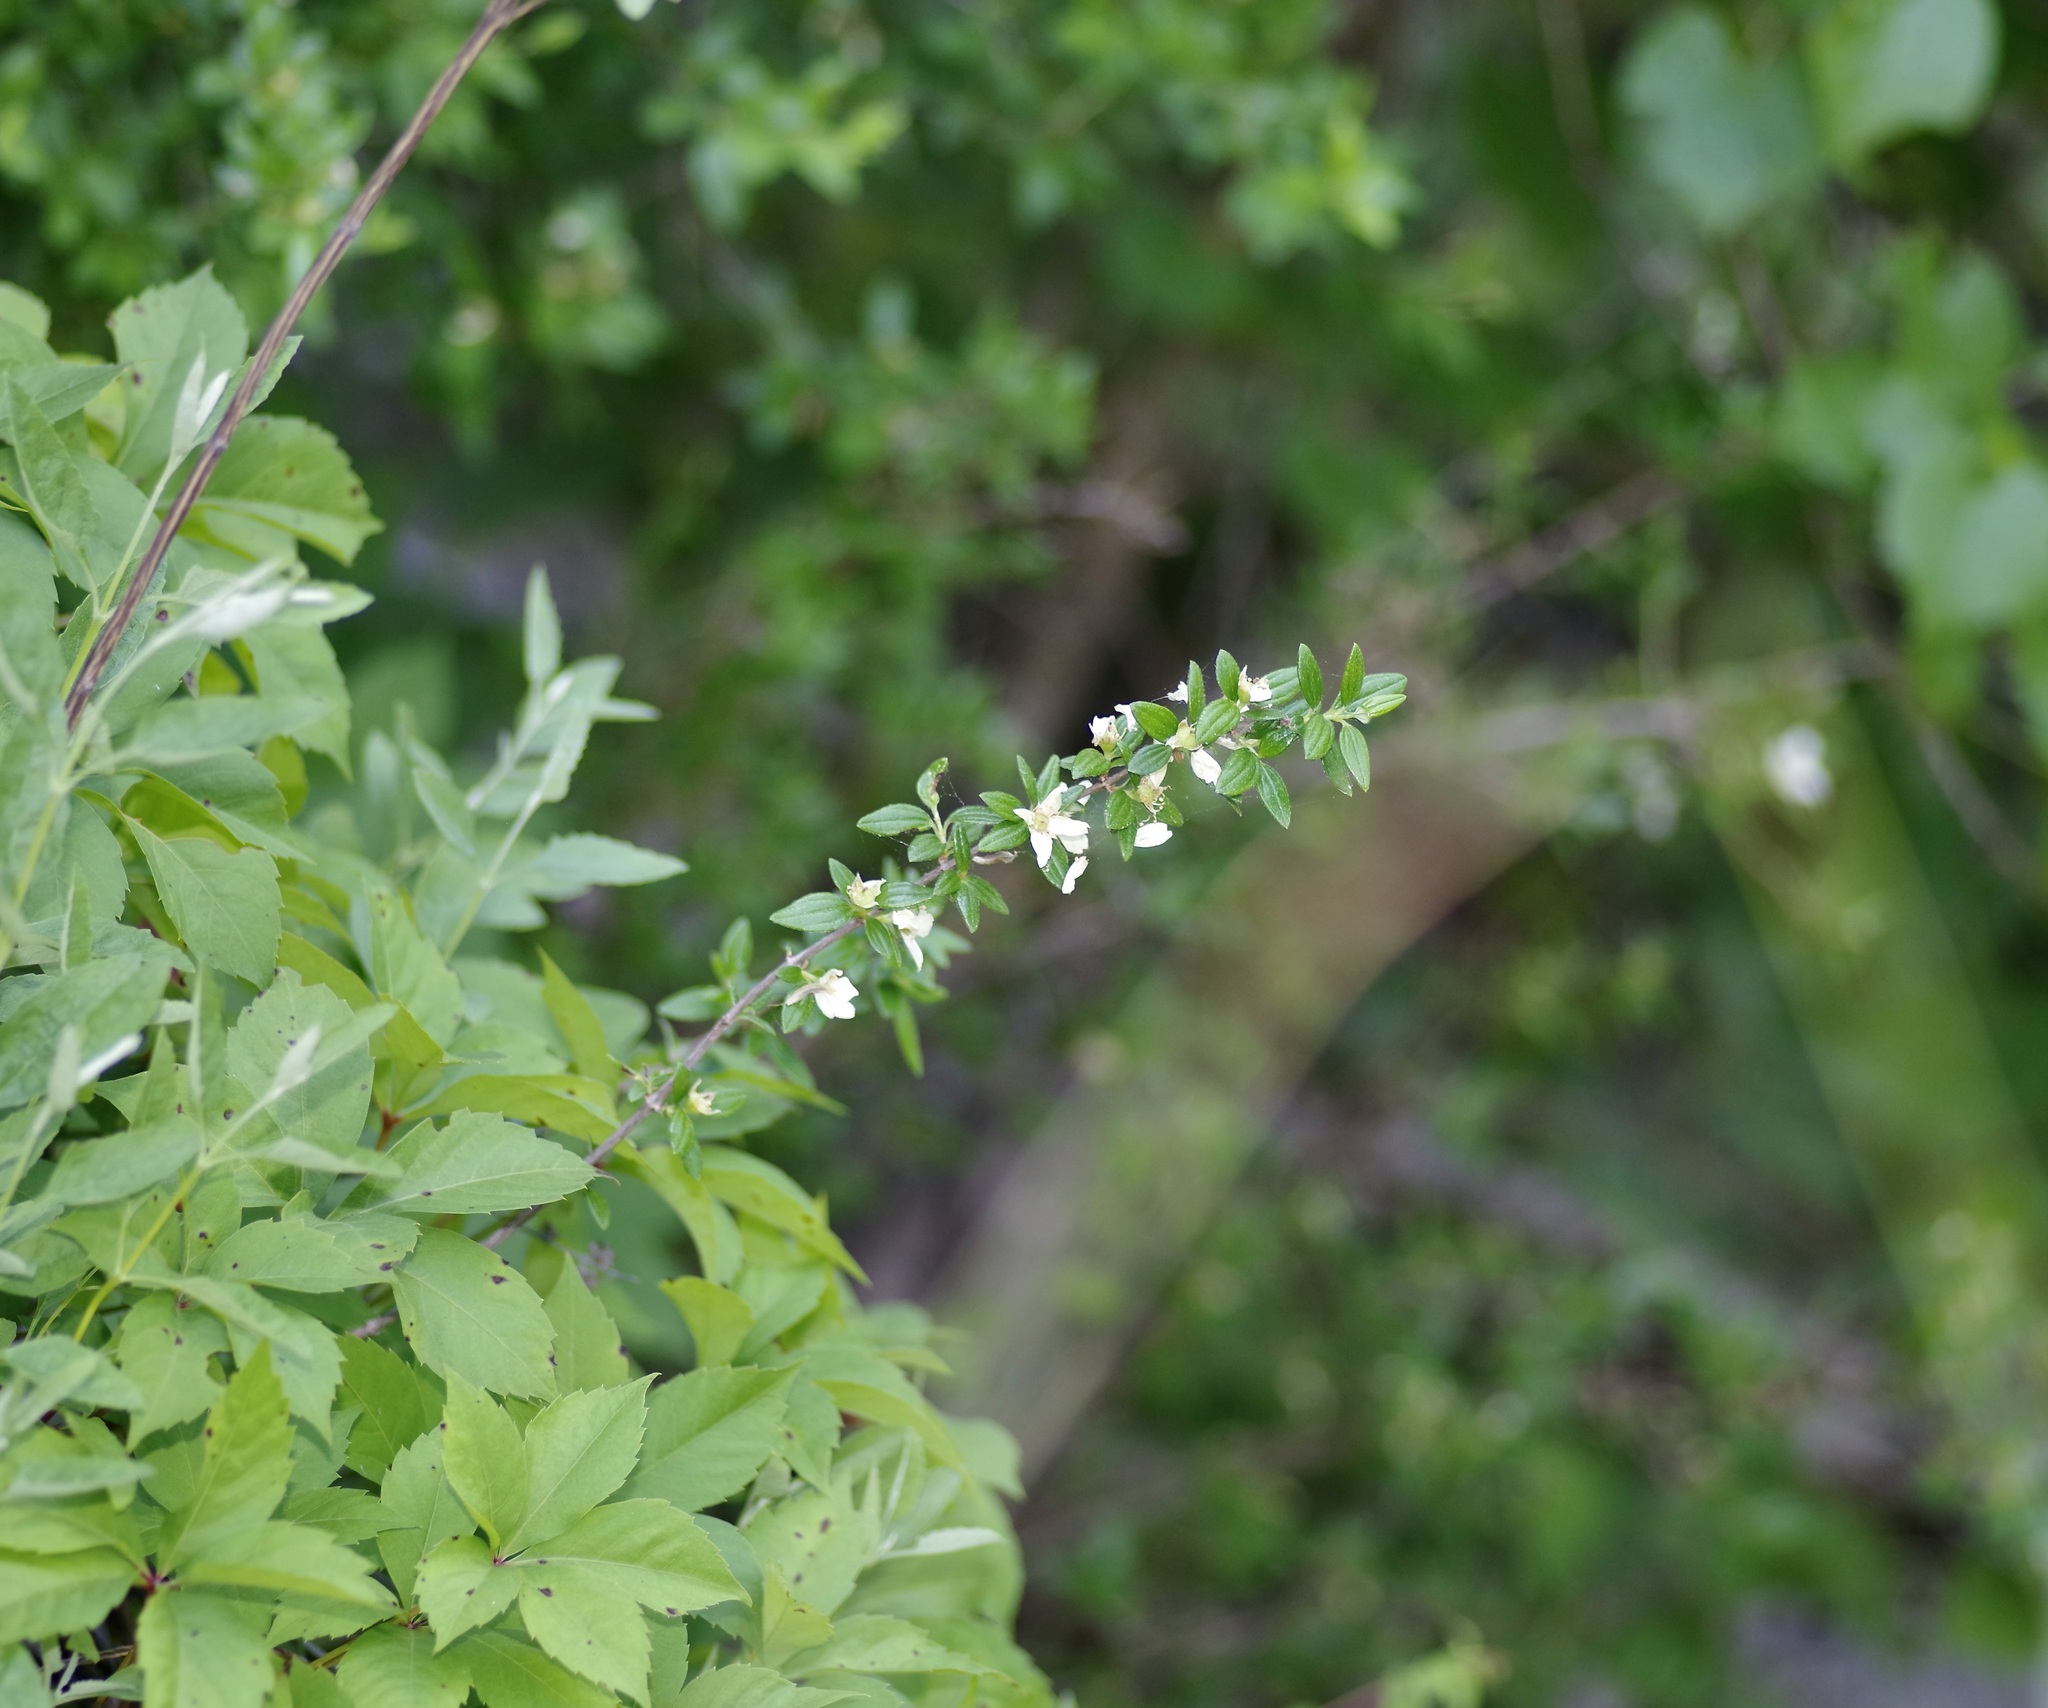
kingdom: Plantae
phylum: Tracheophyta
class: Magnoliopsida
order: Cornales
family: Hydrangeaceae
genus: Philadelphus
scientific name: Philadelphus texensis
